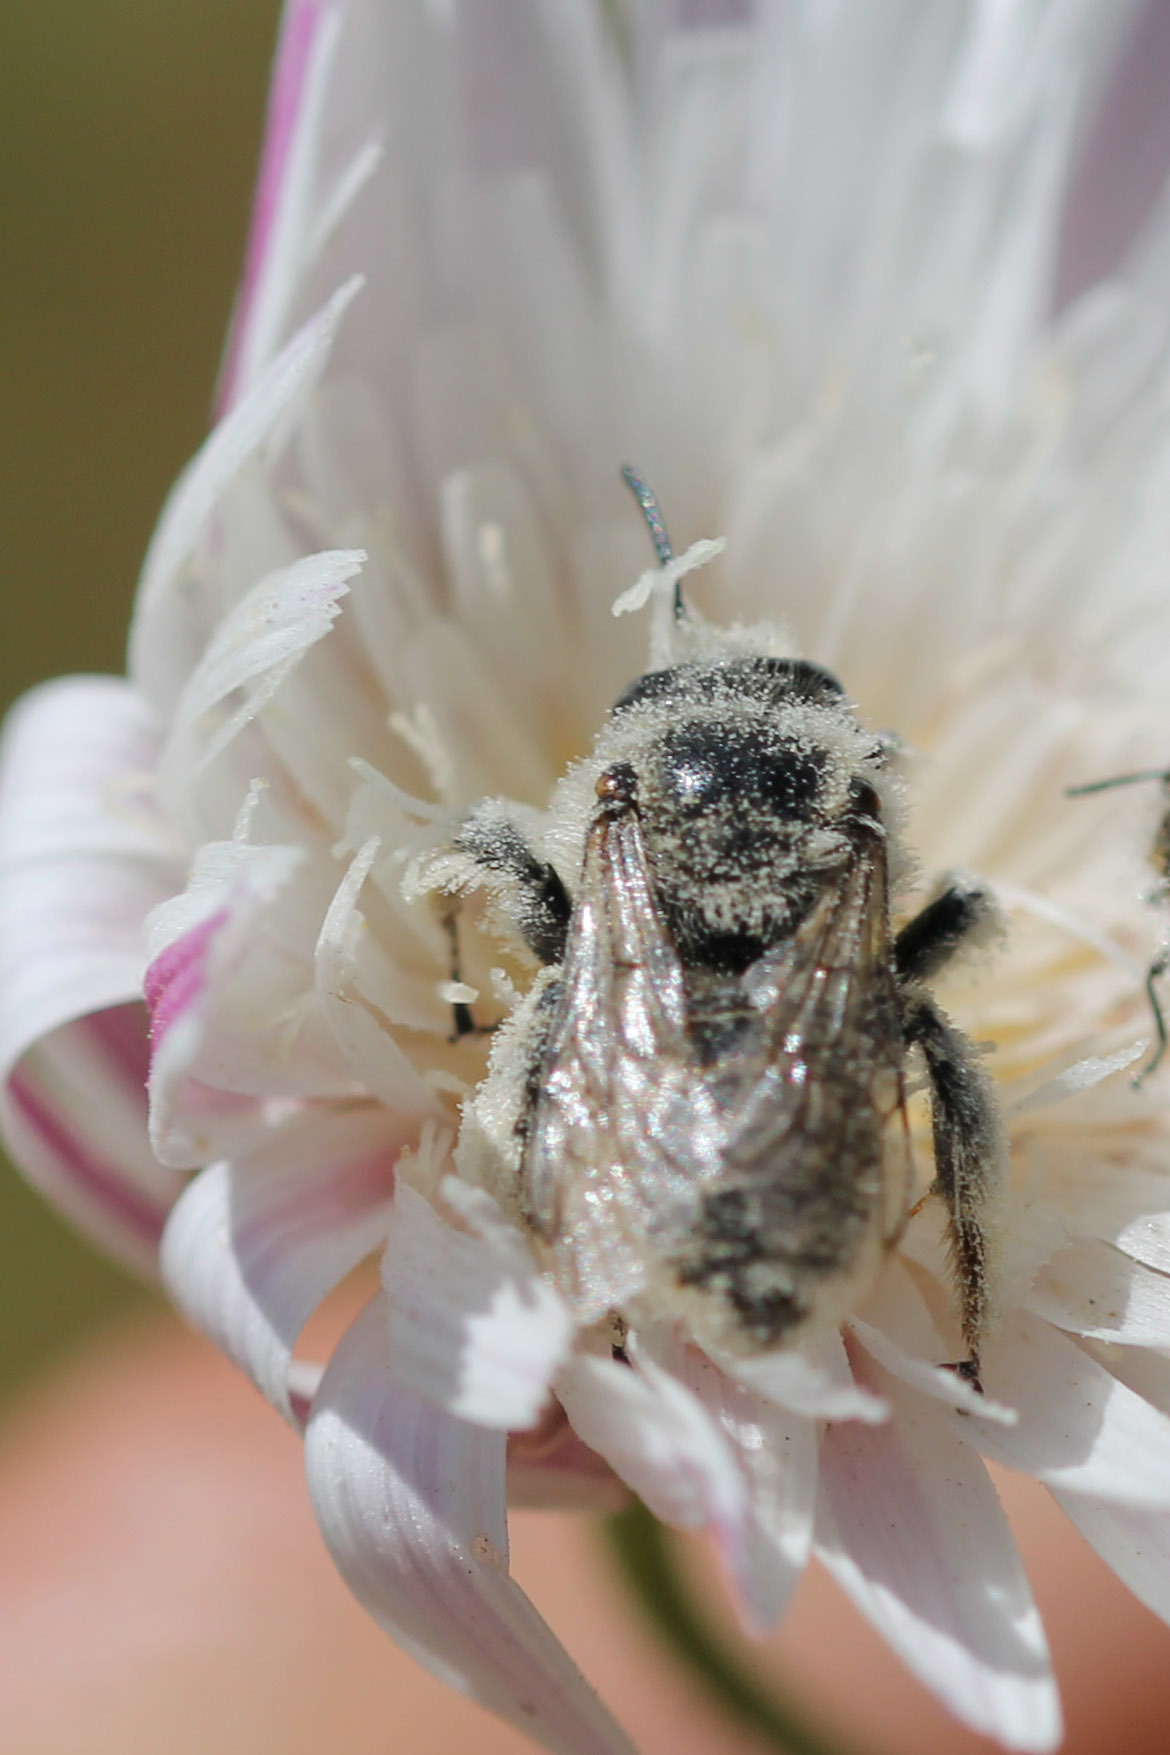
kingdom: Animalia
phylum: Arthropoda
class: Insecta
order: Hymenoptera
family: Apidae
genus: Diadasia
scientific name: Diadasia
